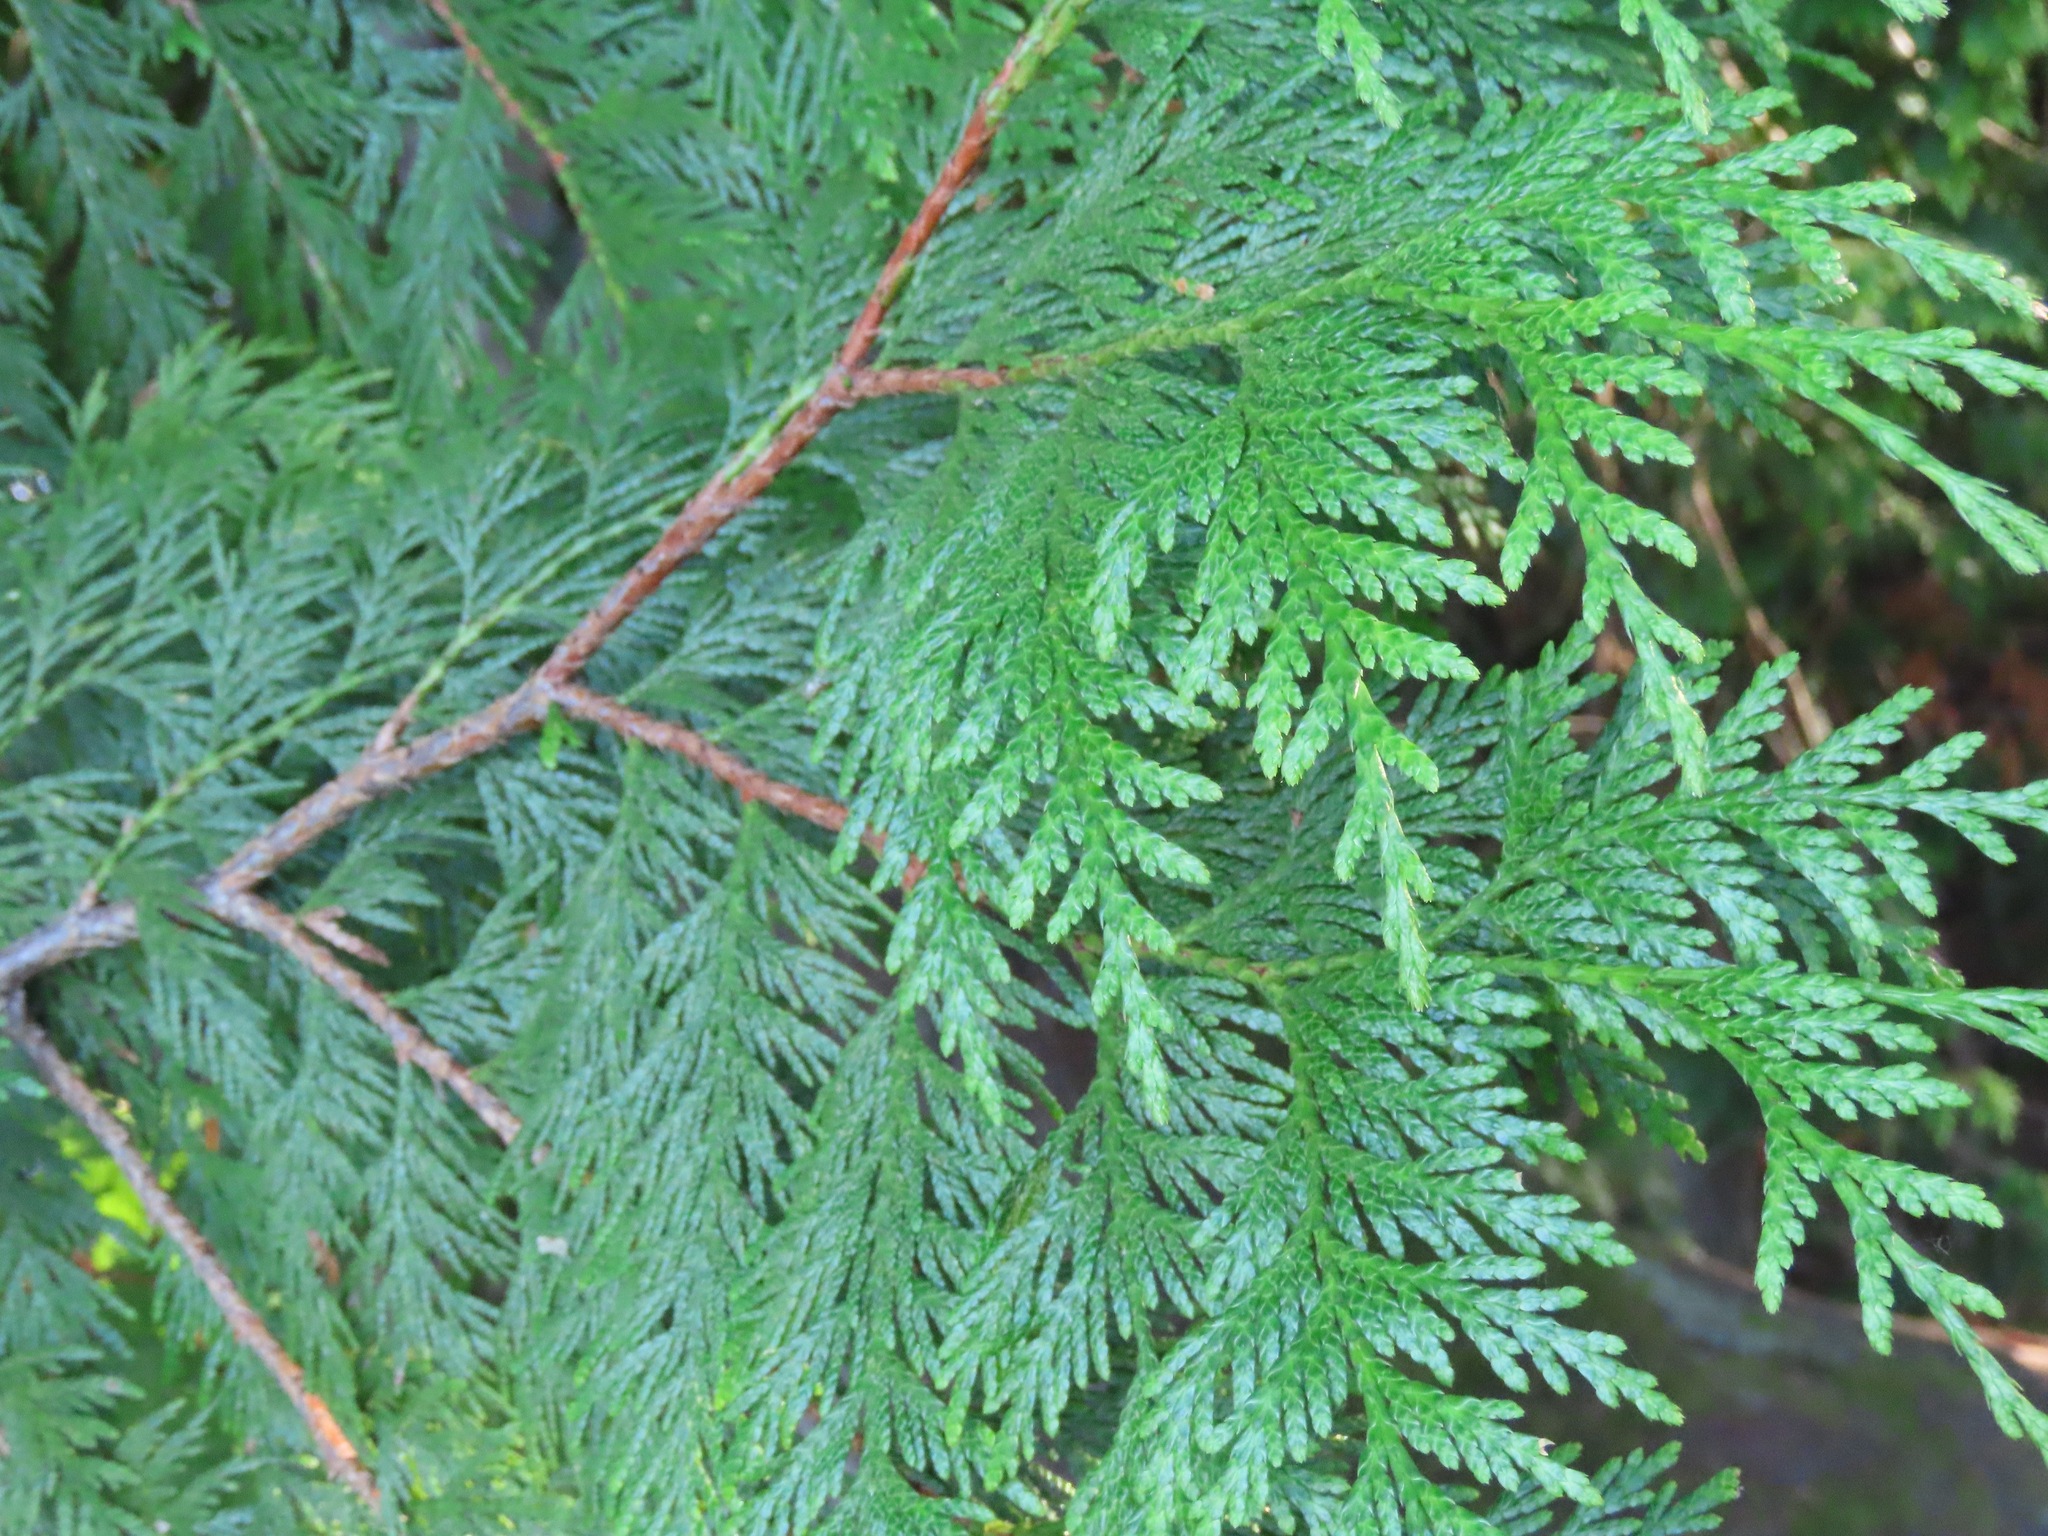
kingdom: Plantae
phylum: Tracheophyta
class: Pinopsida
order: Pinales
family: Cupressaceae
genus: Thuja
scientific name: Thuja plicata
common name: Western red-cedar
